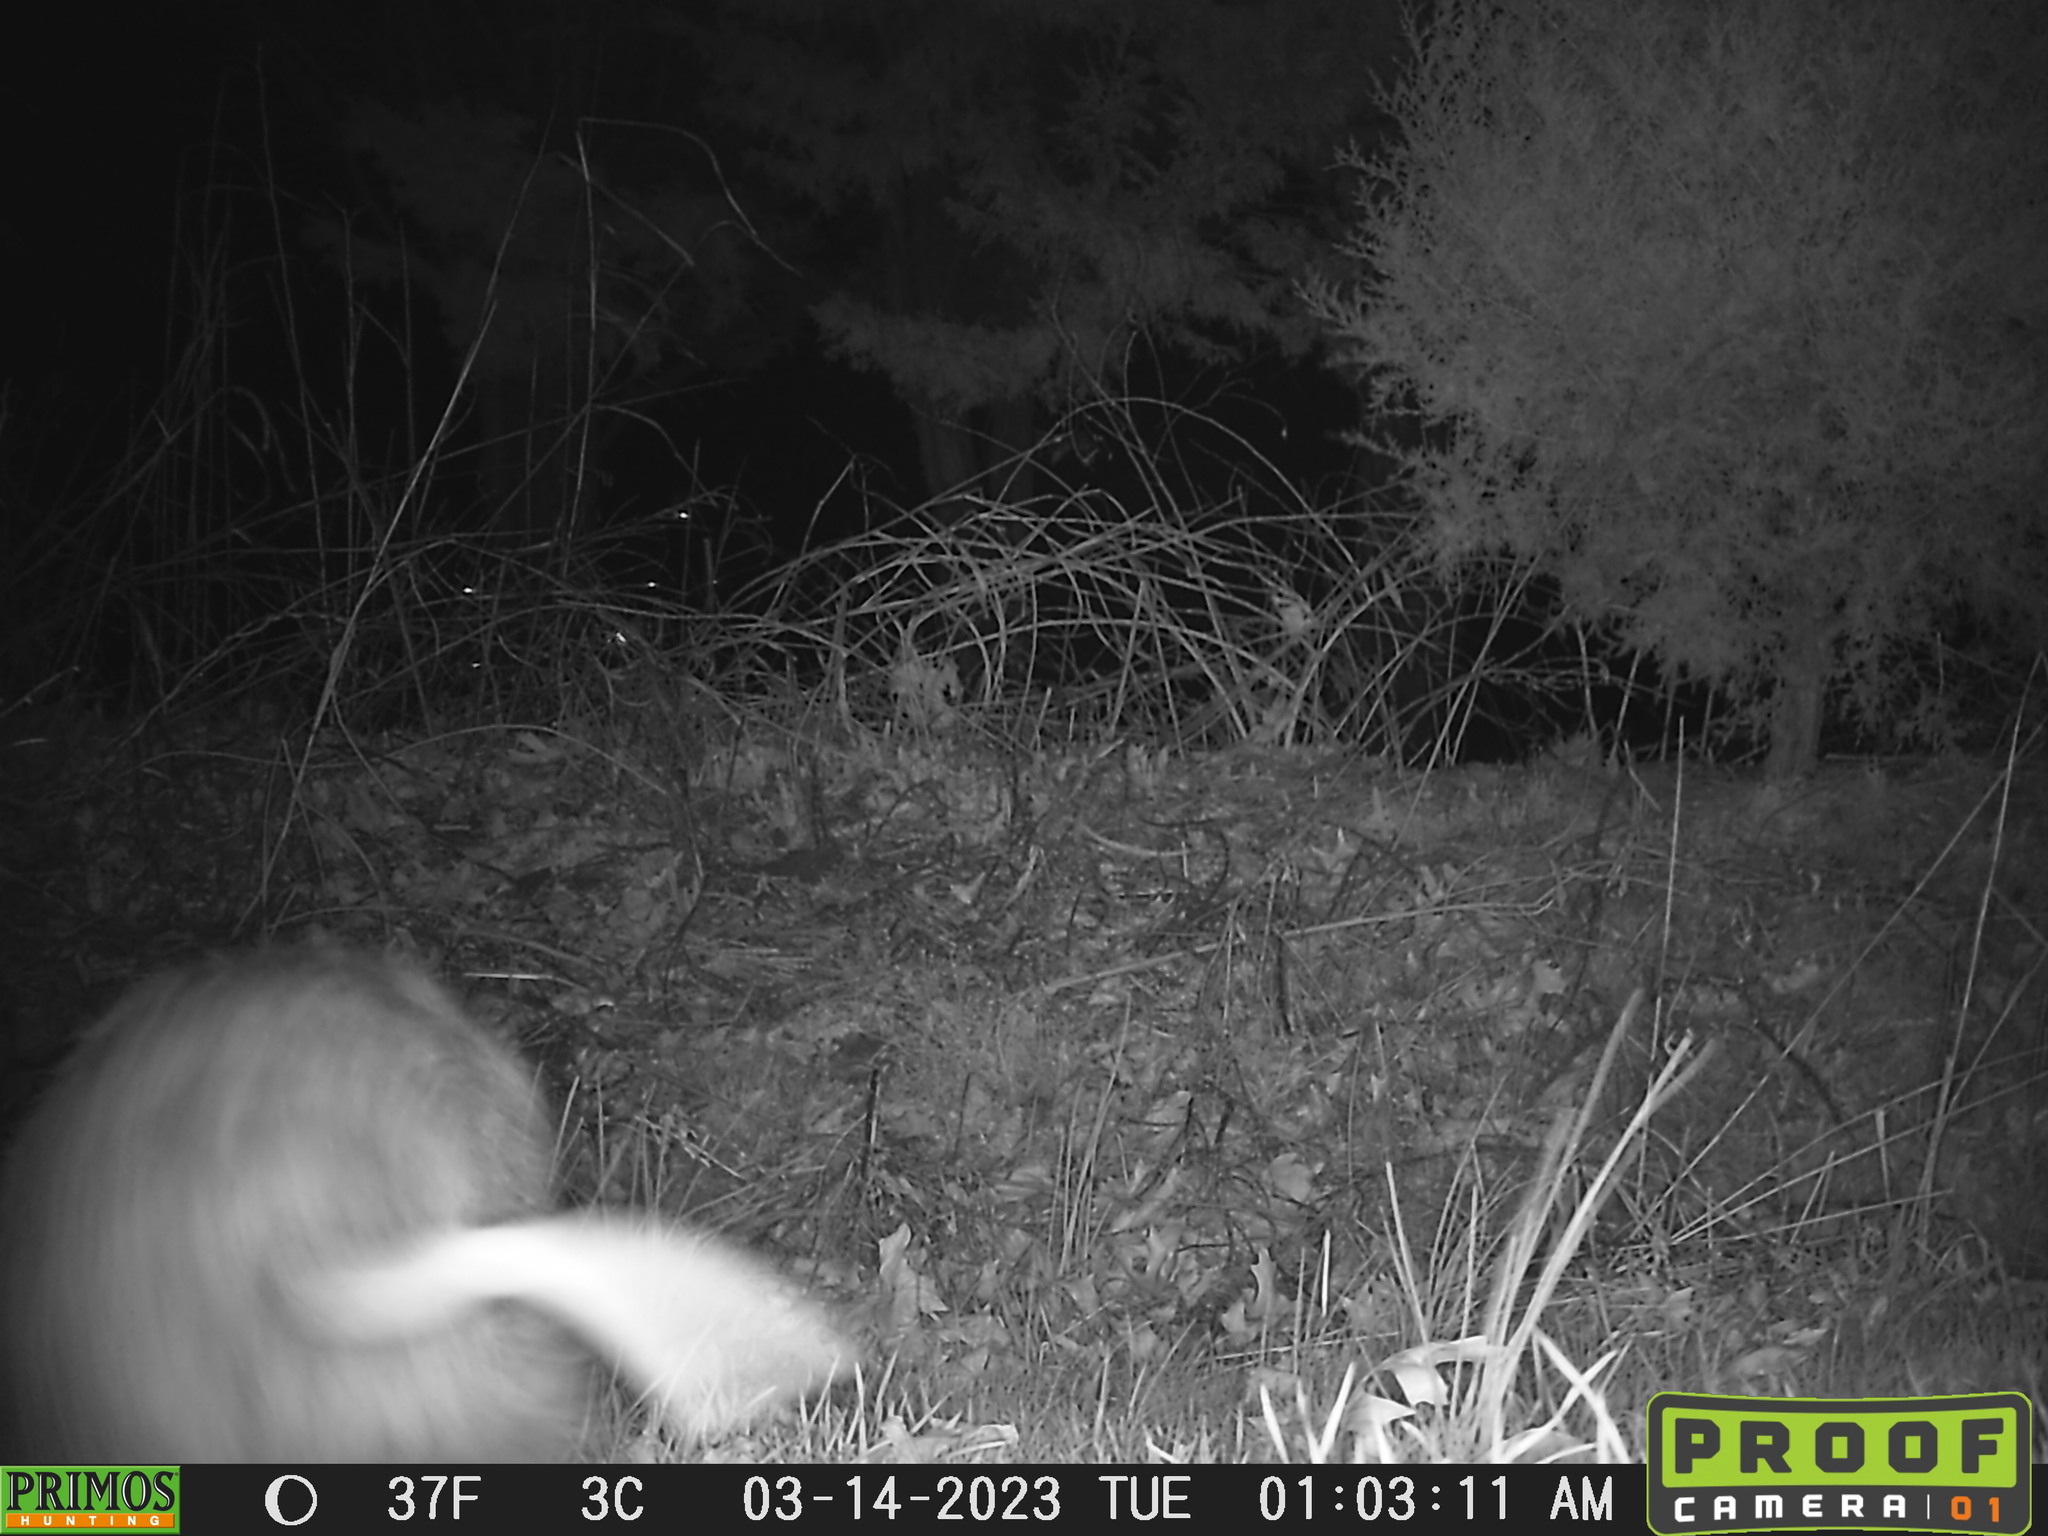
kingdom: Animalia
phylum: Chordata
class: Mammalia
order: Didelphimorphia
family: Didelphidae
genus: Didelphis
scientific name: Didelphis virginiana
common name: Virginia opossum
